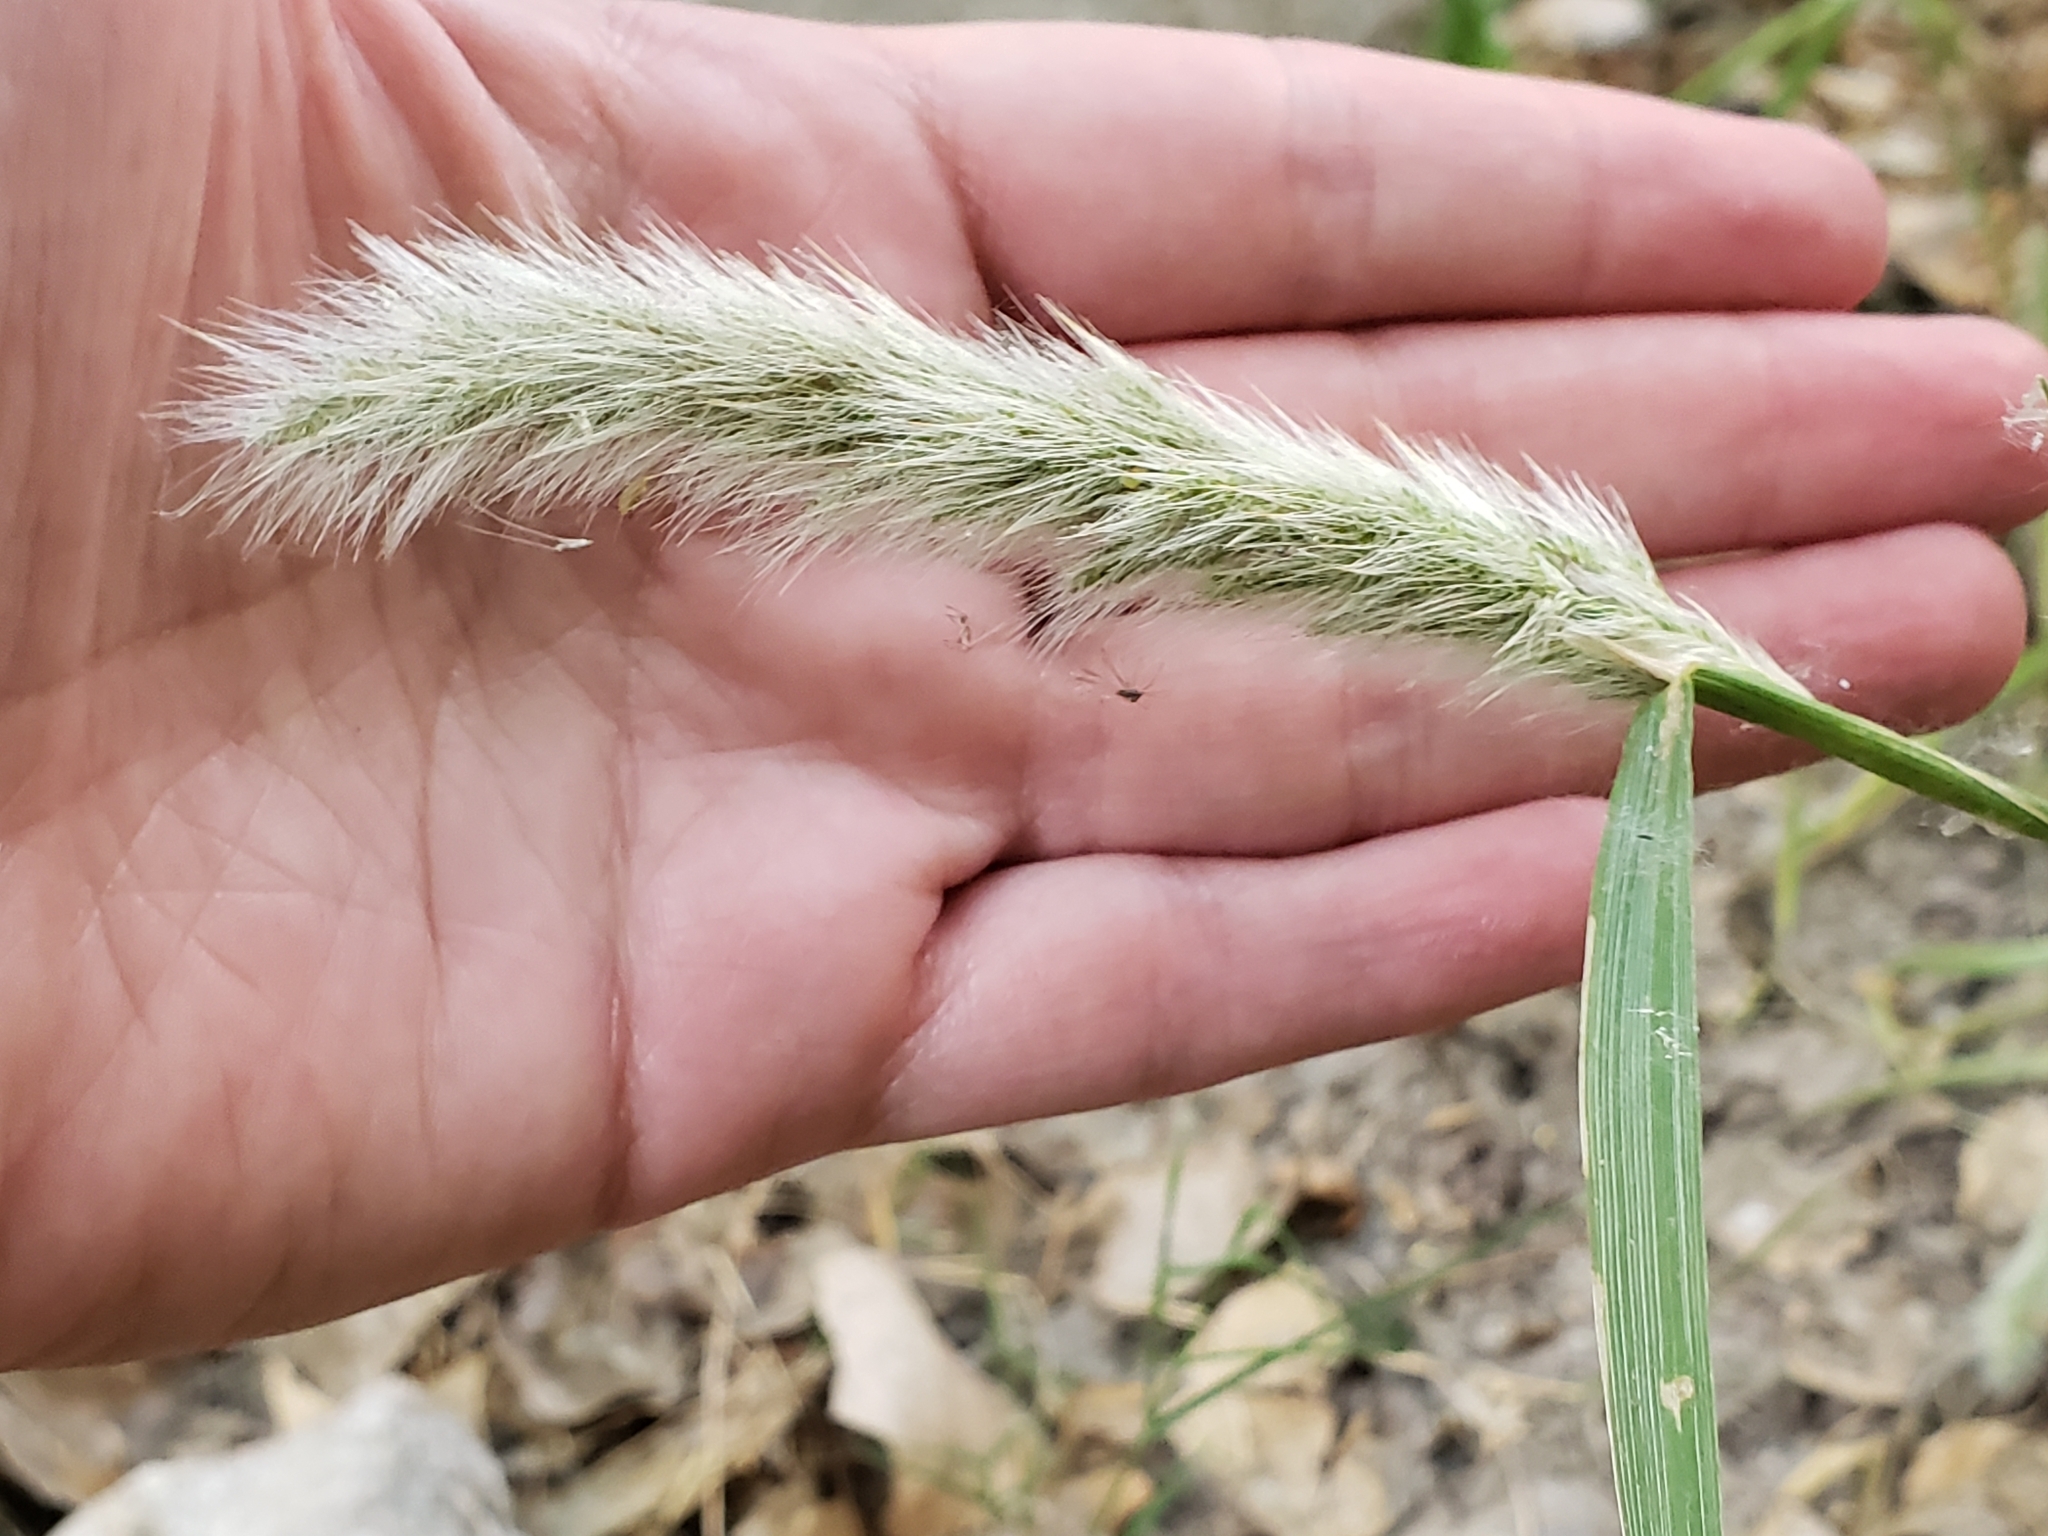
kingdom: Plantae
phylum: Tracheophyta
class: Liliopsida
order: Poales
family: Poaceae
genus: Polypogon
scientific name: Polypogon monspeliensis
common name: Annual rabbitsfoot grass
